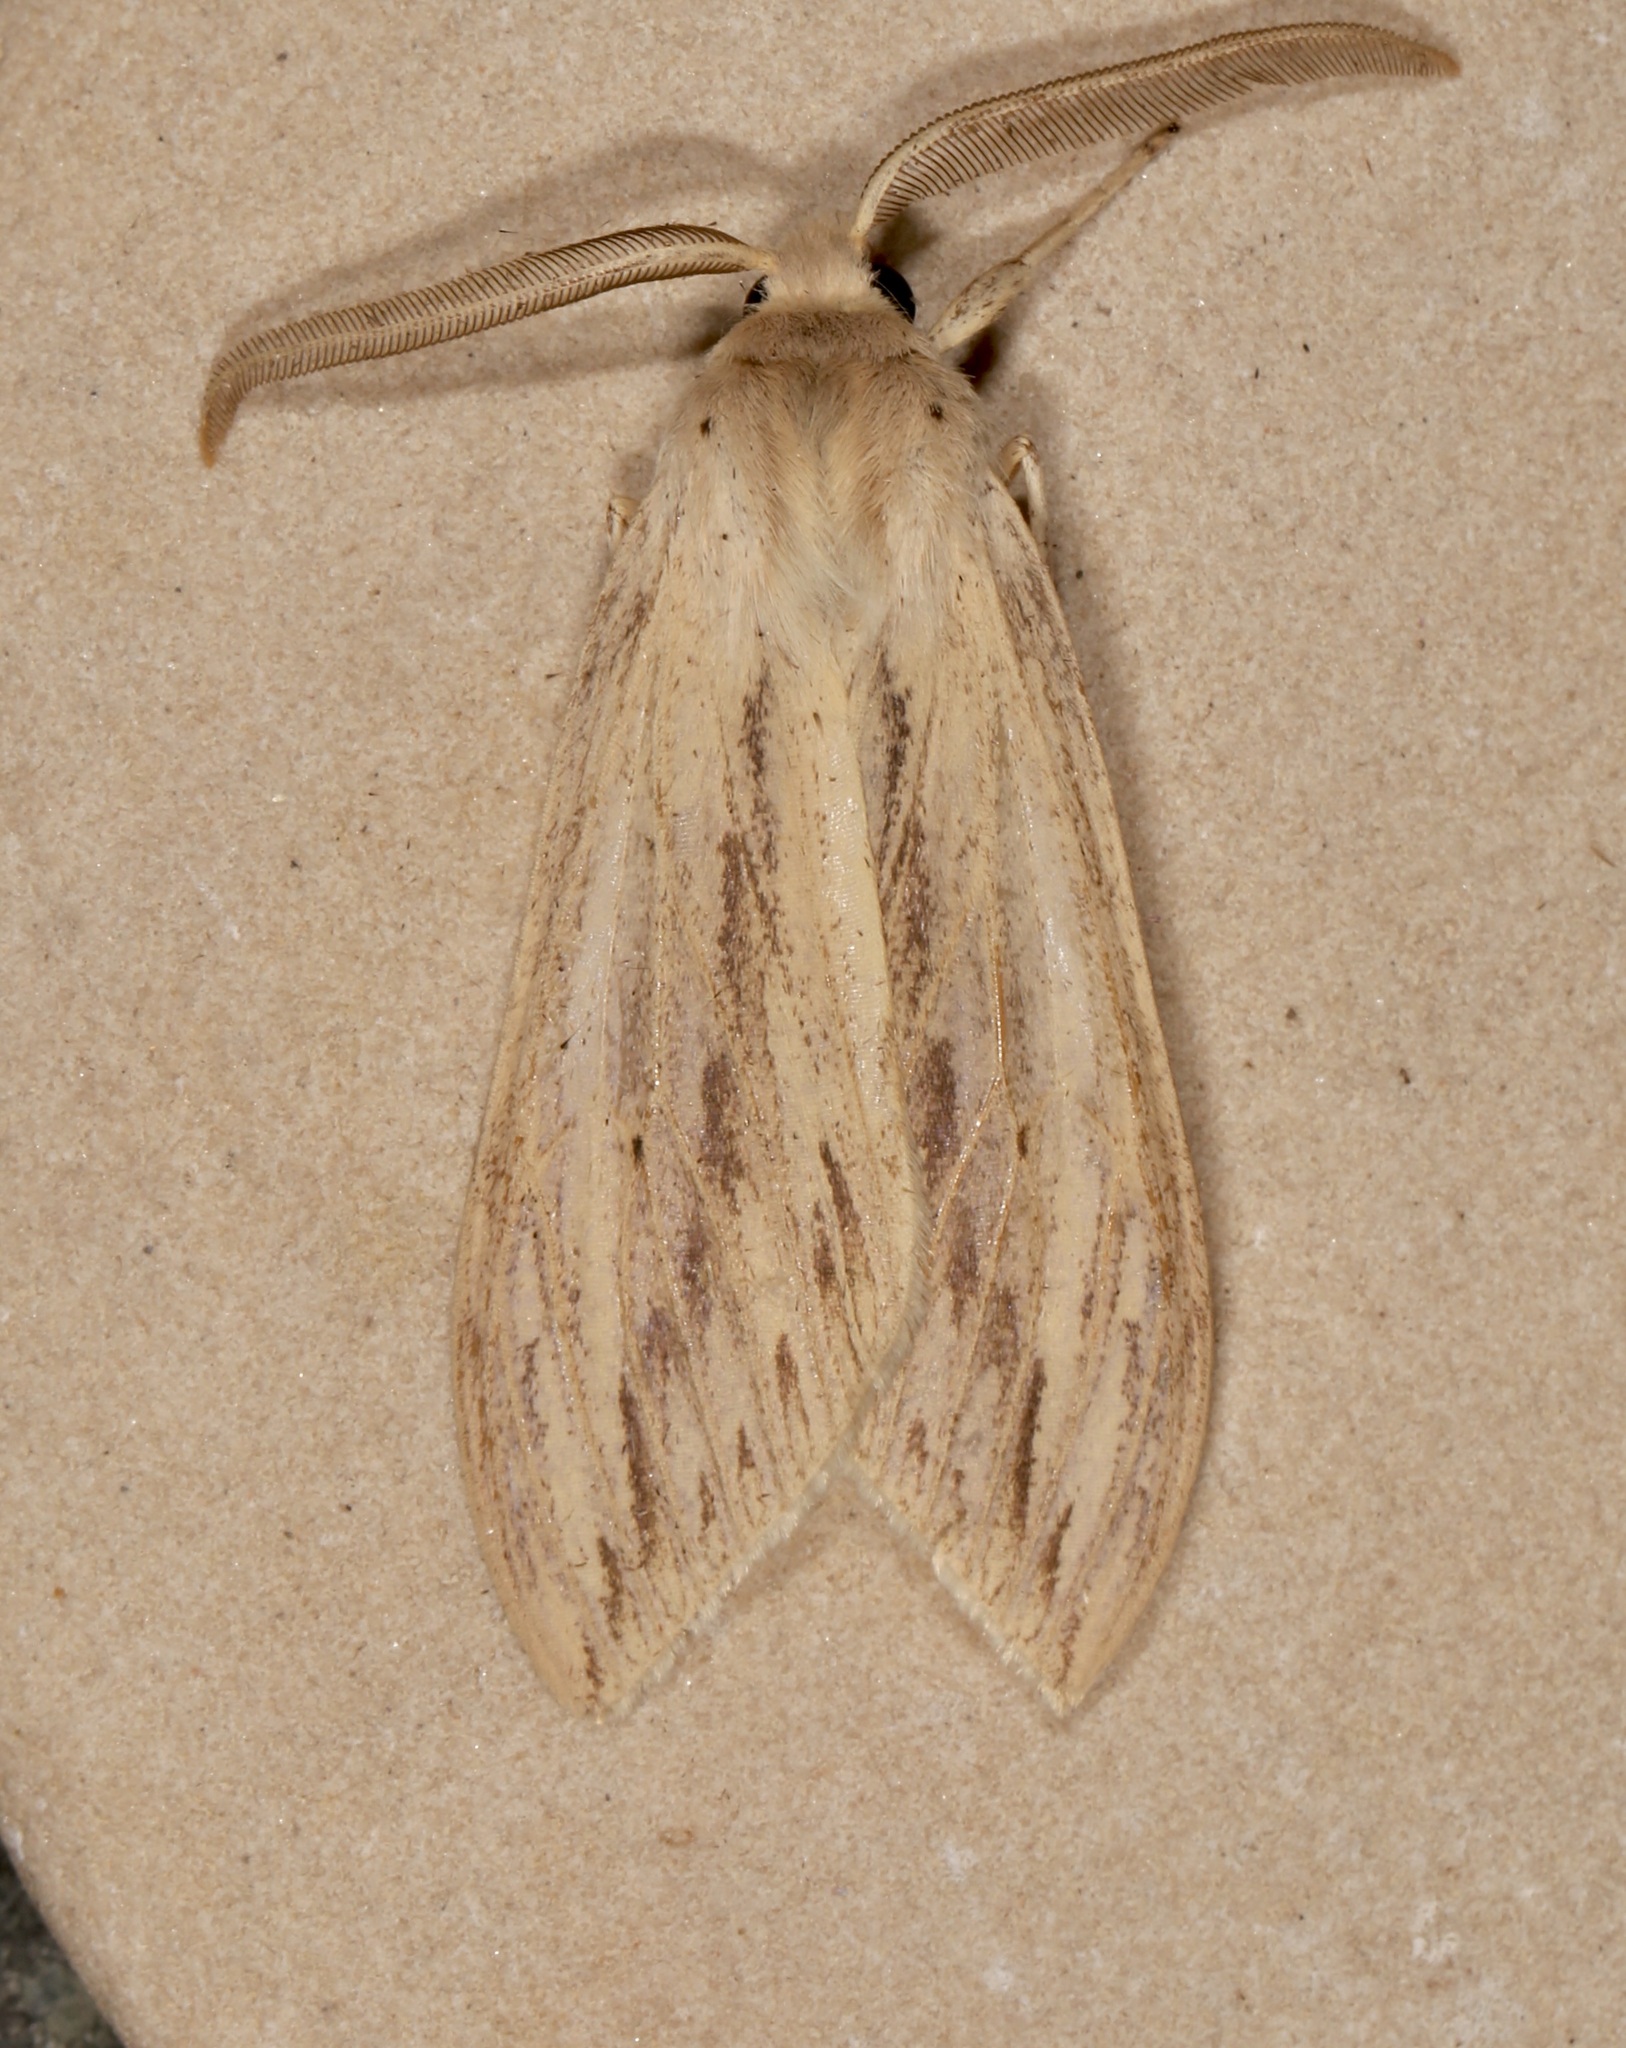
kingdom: Animalia
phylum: Arthropoda
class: Insecta
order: Lepidoptera
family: Erebidae
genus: Leucanopsis
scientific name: Leucanopsis lurida
